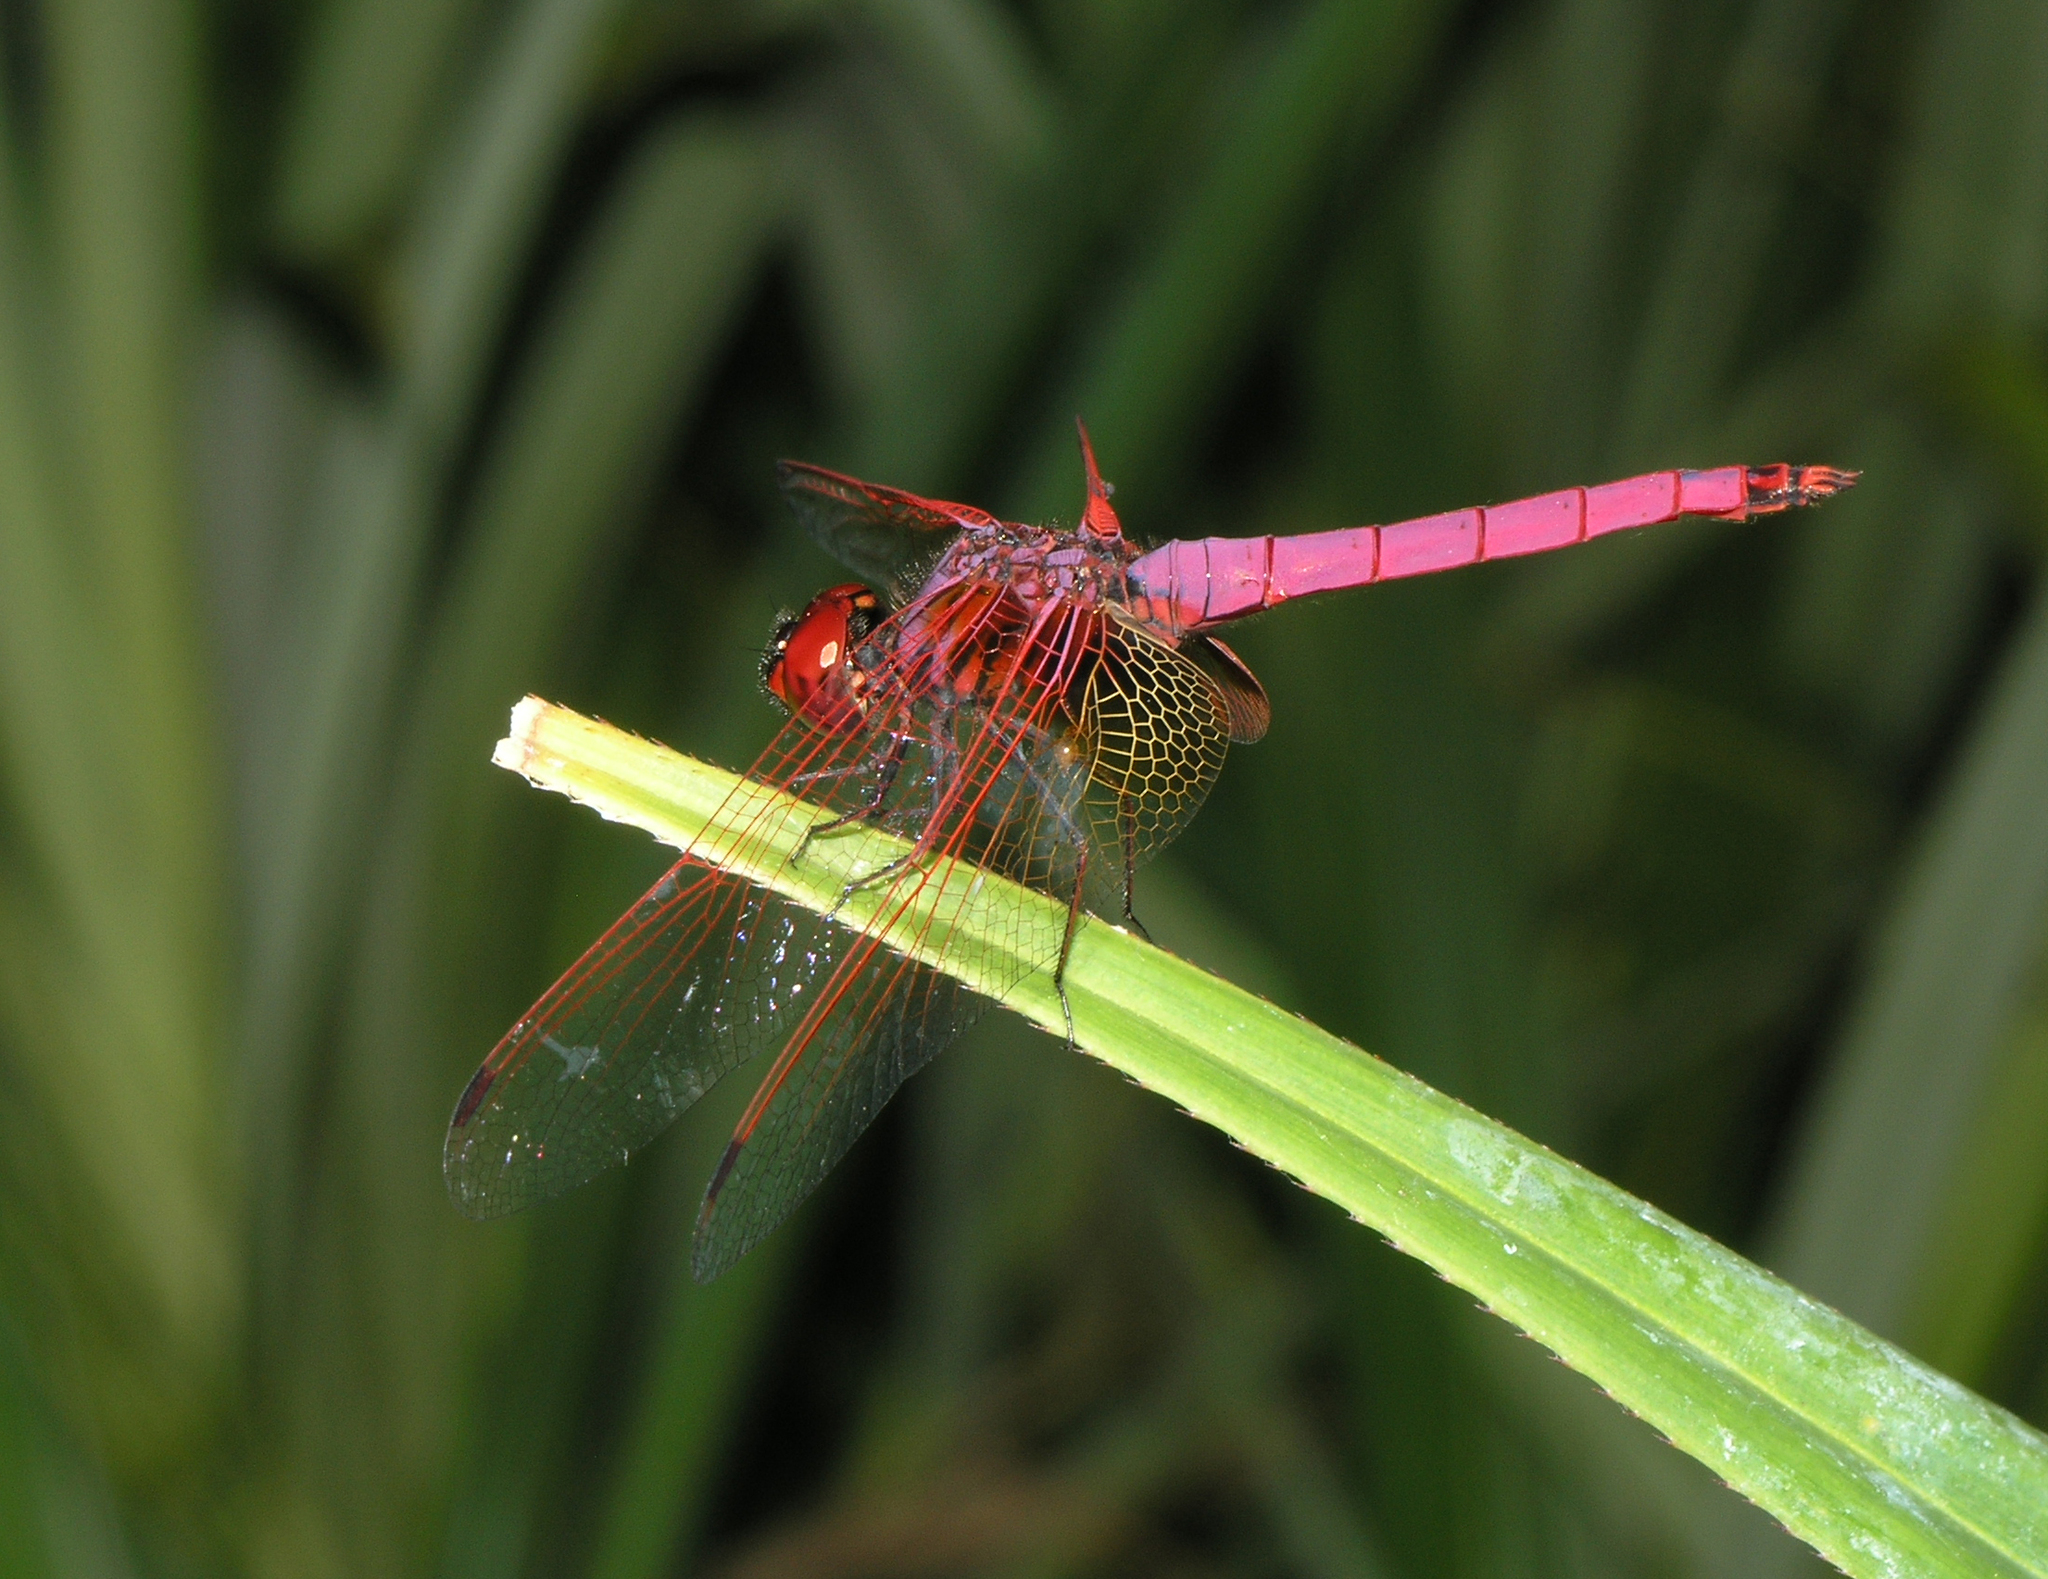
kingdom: Animalia
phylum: Arthropoda
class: Insecta
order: Odonata
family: Libellulidae
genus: Trithemis
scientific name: Trithemis aurora
